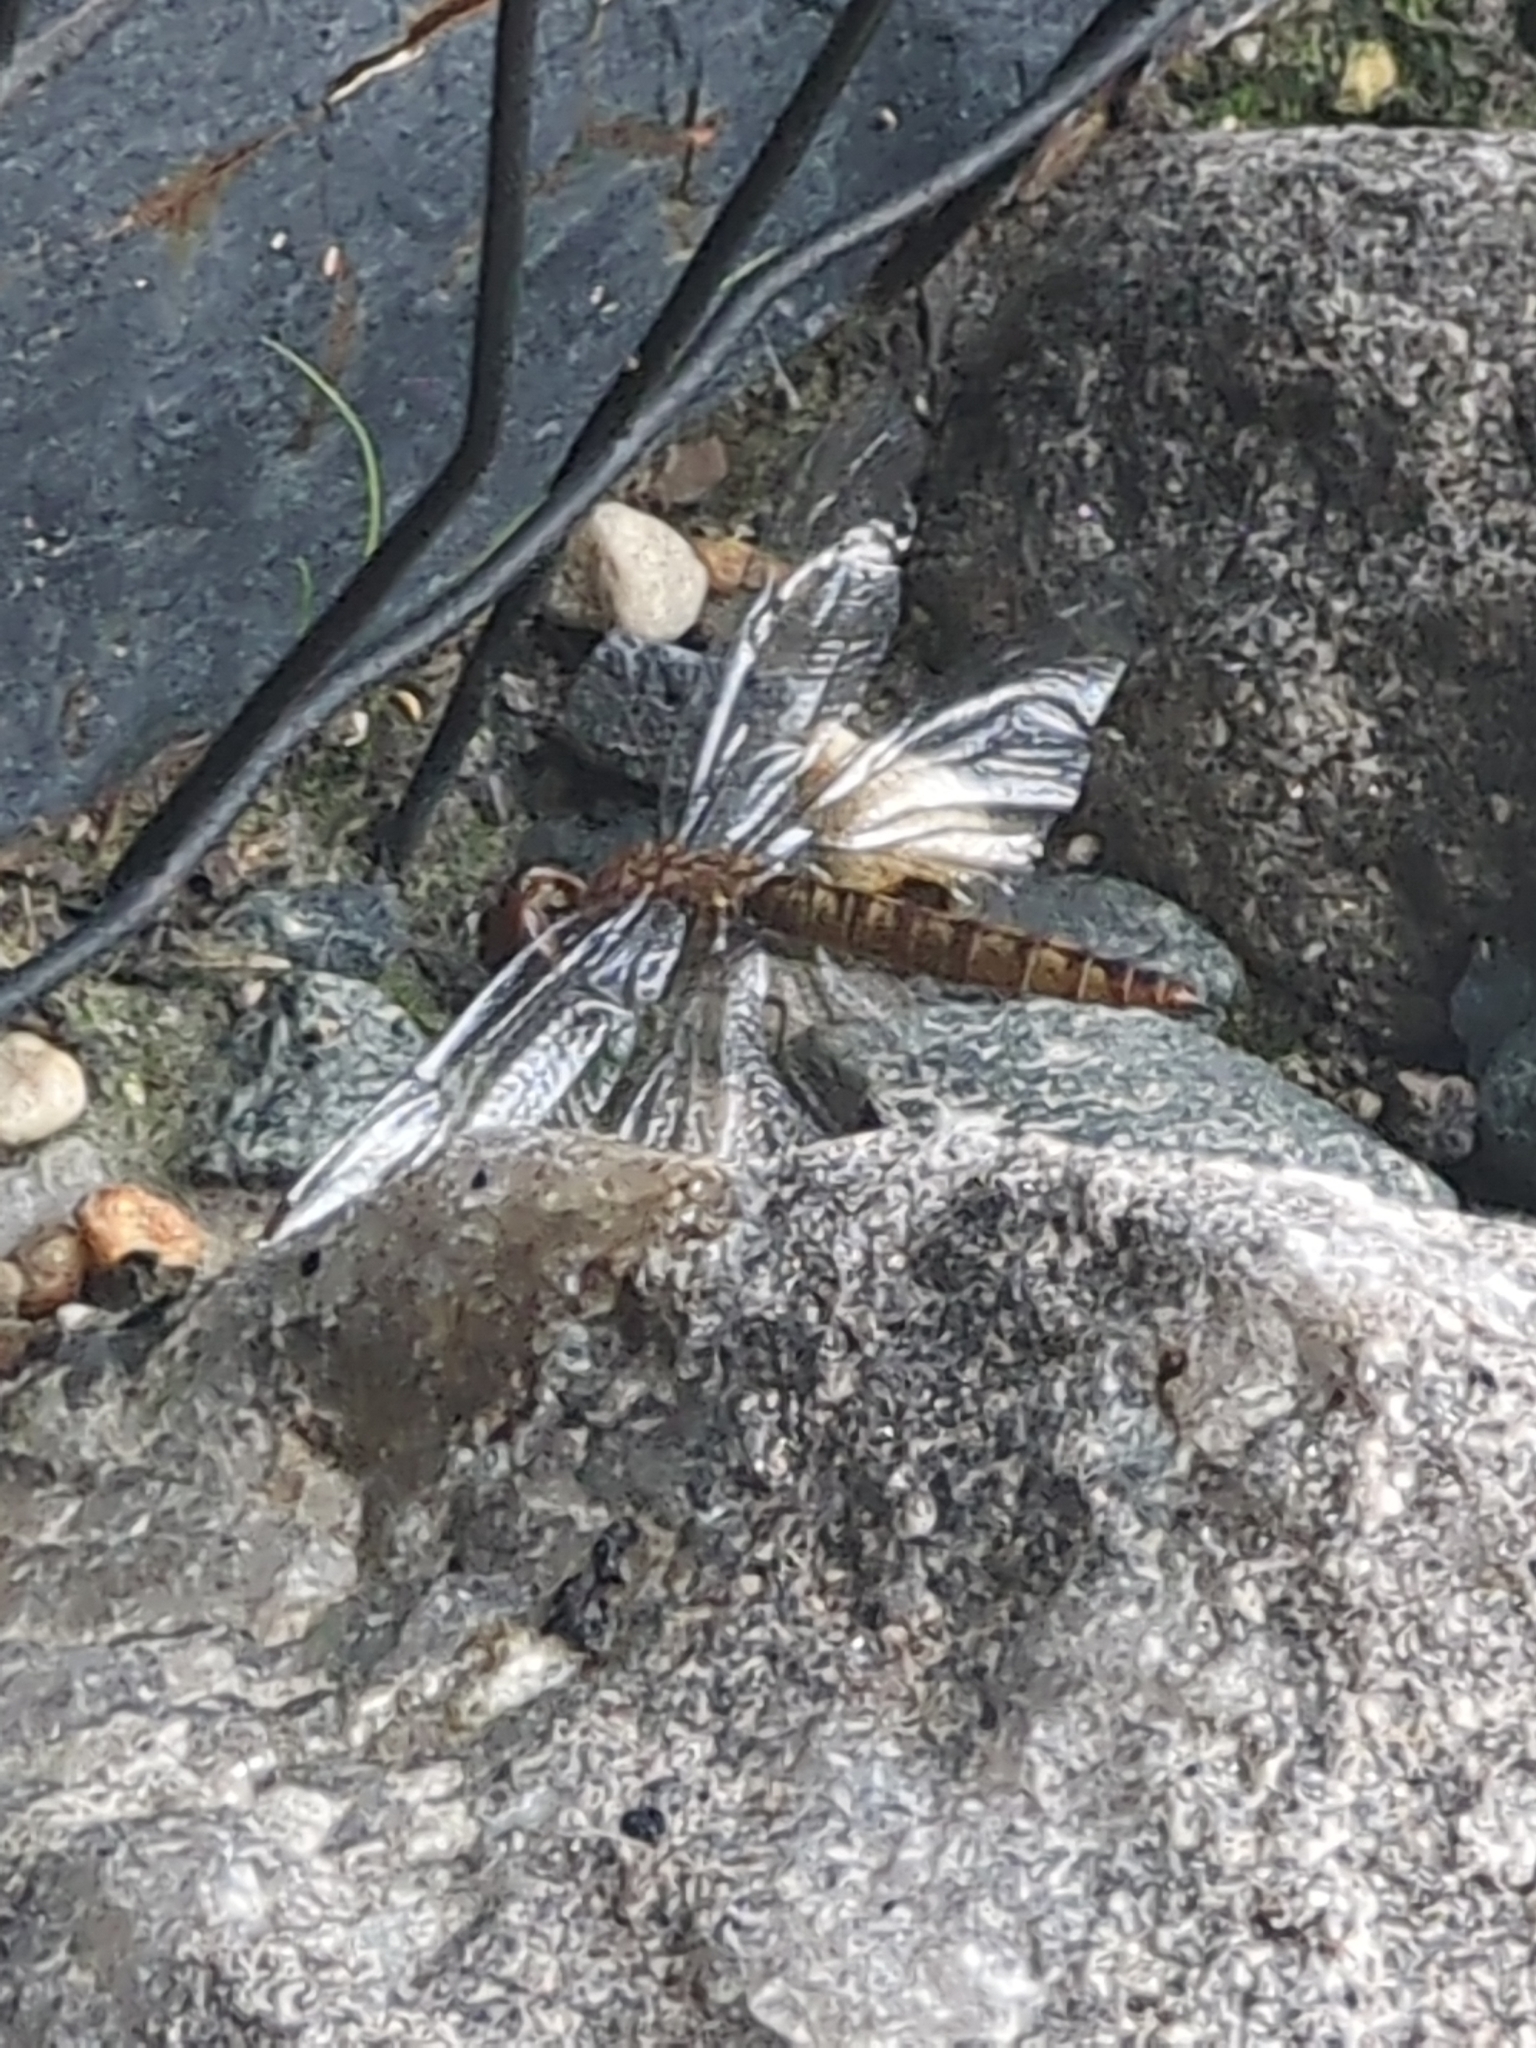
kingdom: Animalia
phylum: Arthropoda
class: Insecta
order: Odonata
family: Libellulidae
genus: Pantala
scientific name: Pantala hymenaea
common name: Spot-winged glider
